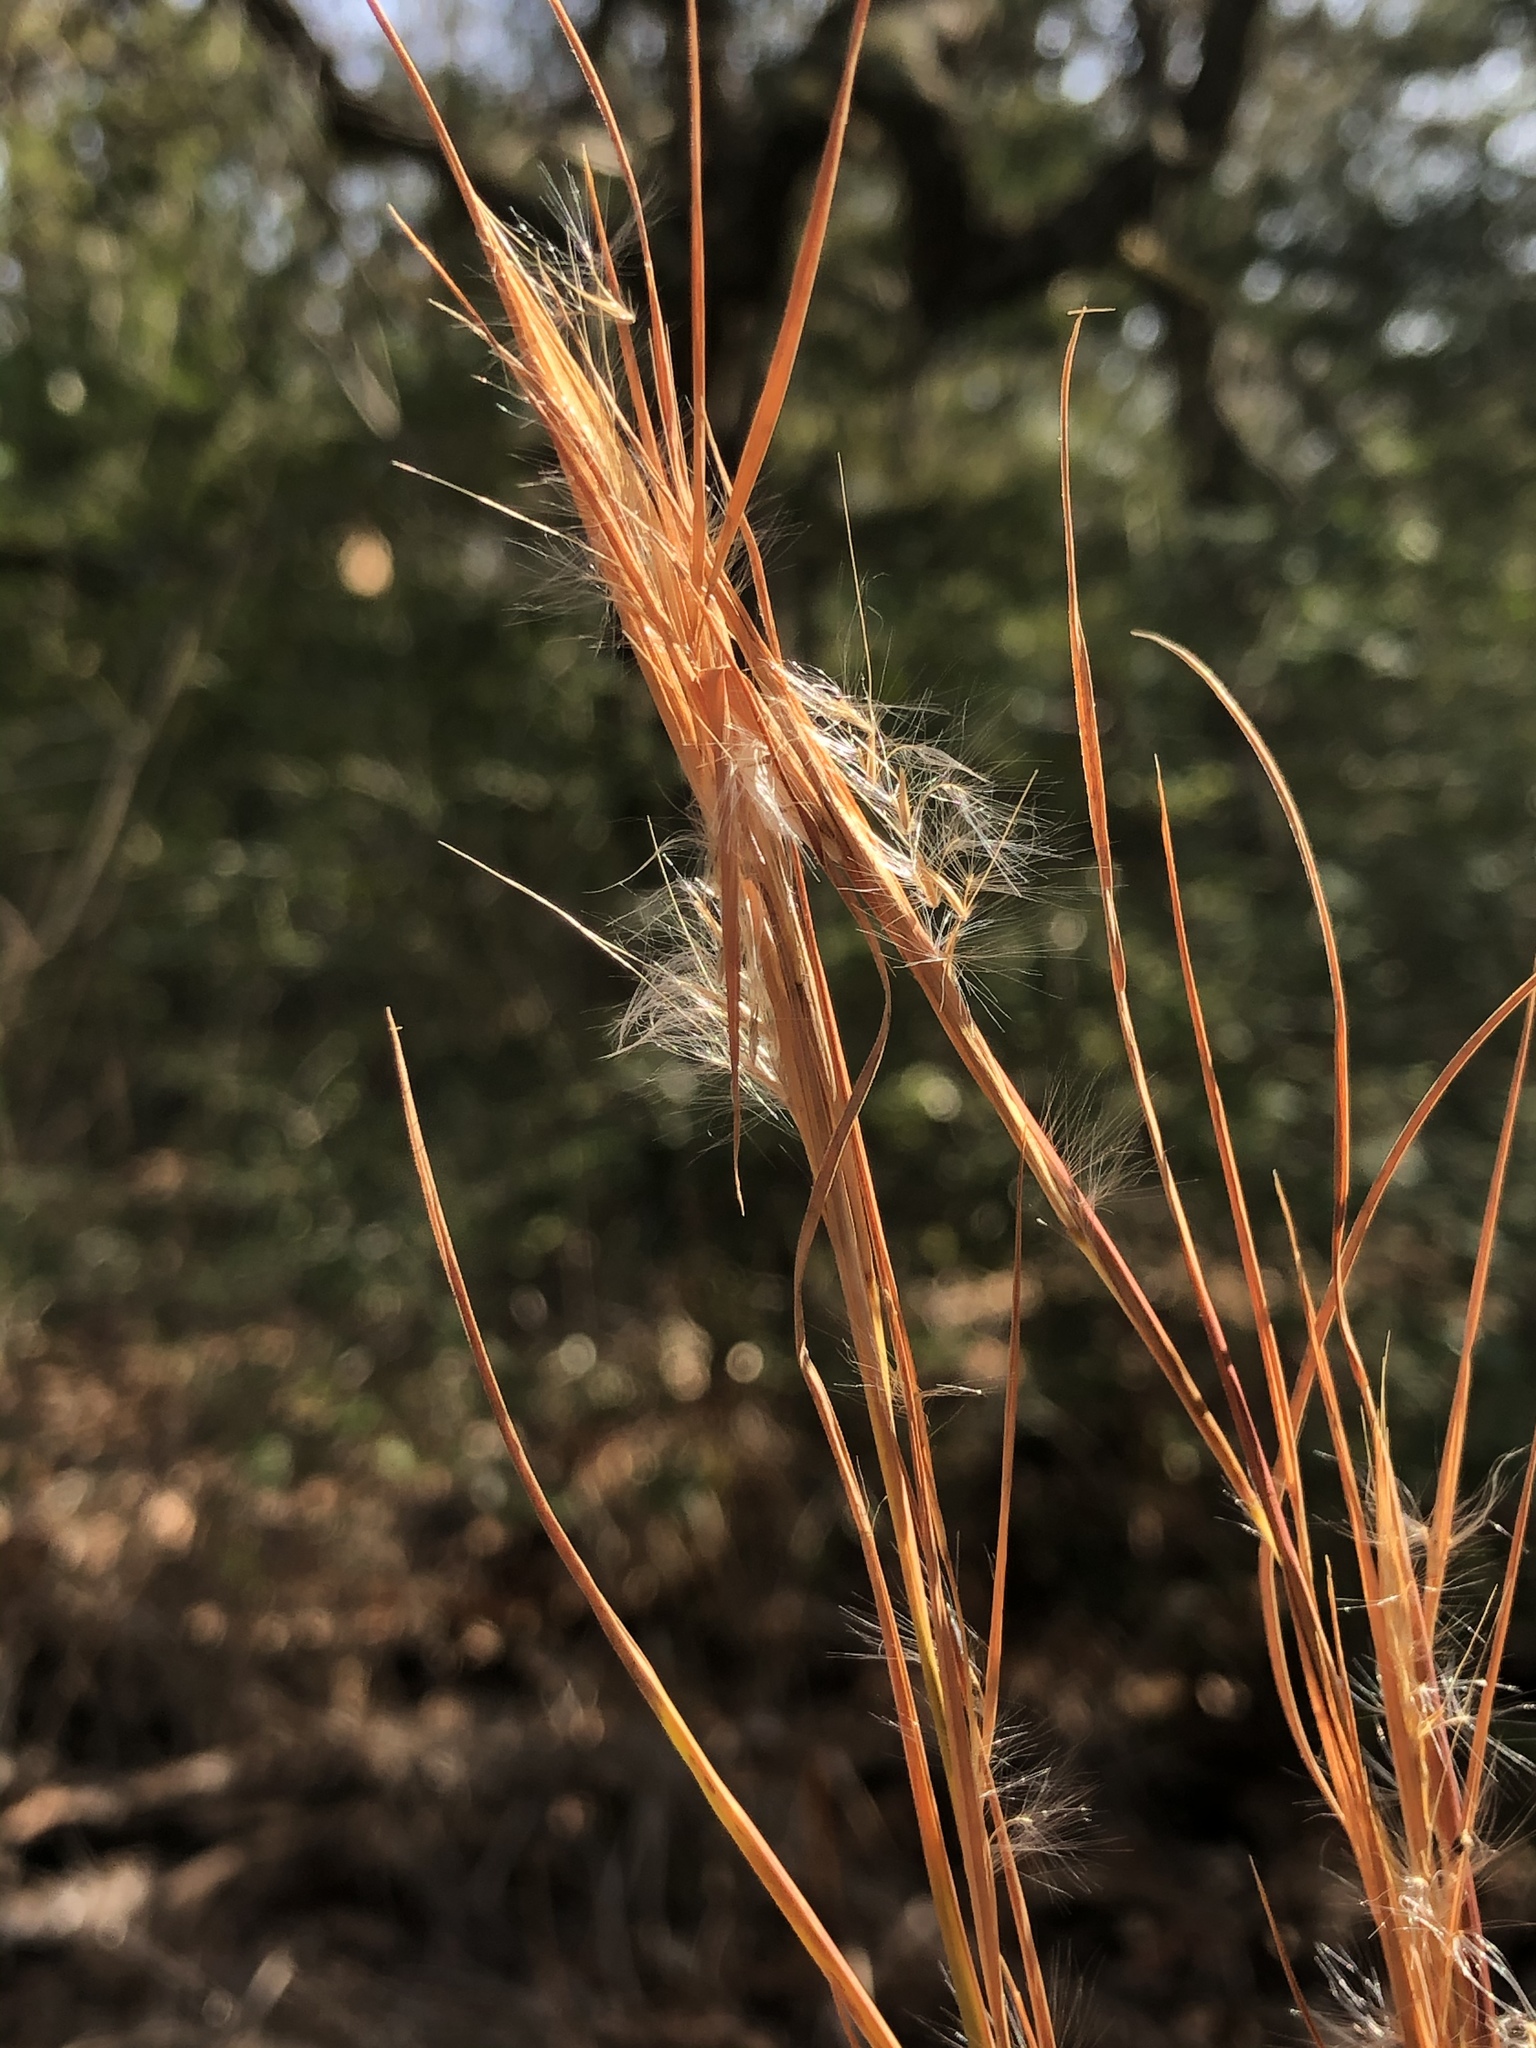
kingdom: Plantae
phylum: Tracheophyta
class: Liliopsida
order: Poales
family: Poaceae
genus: Andropogon
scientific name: Andropogon virginicus
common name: Broomsedge bluestem
